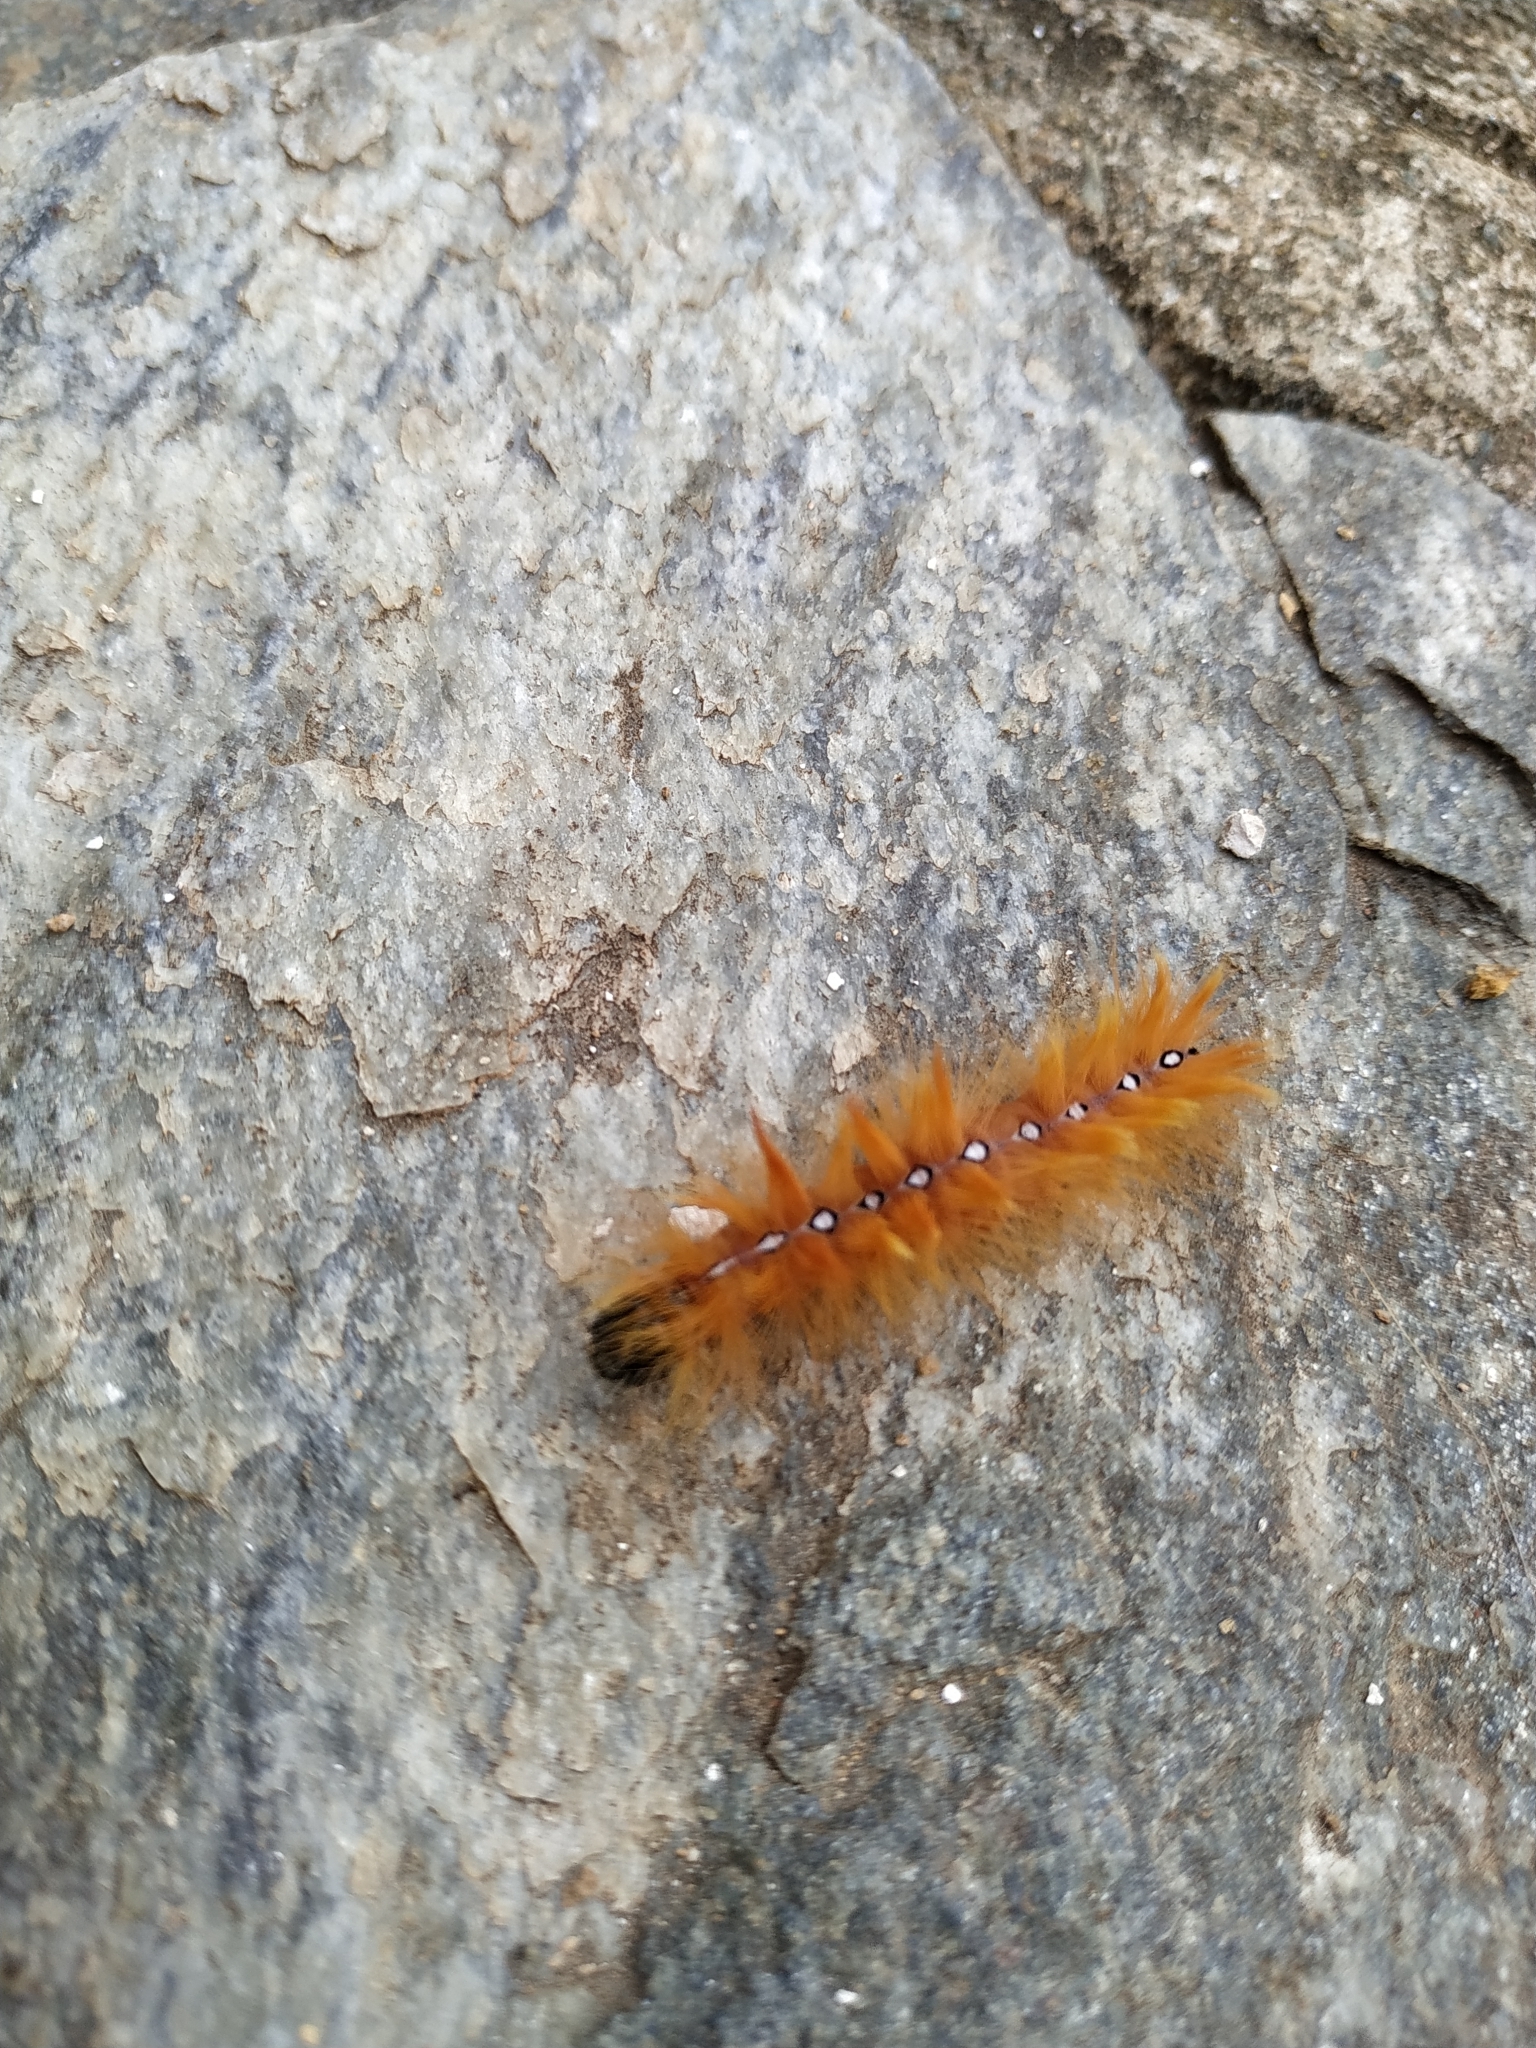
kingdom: Animalia
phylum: Arthropoda
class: Insecta
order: Lepidoptera
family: Noctuidae
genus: Acronicta
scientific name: Acronicta aceris
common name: Sycamore
